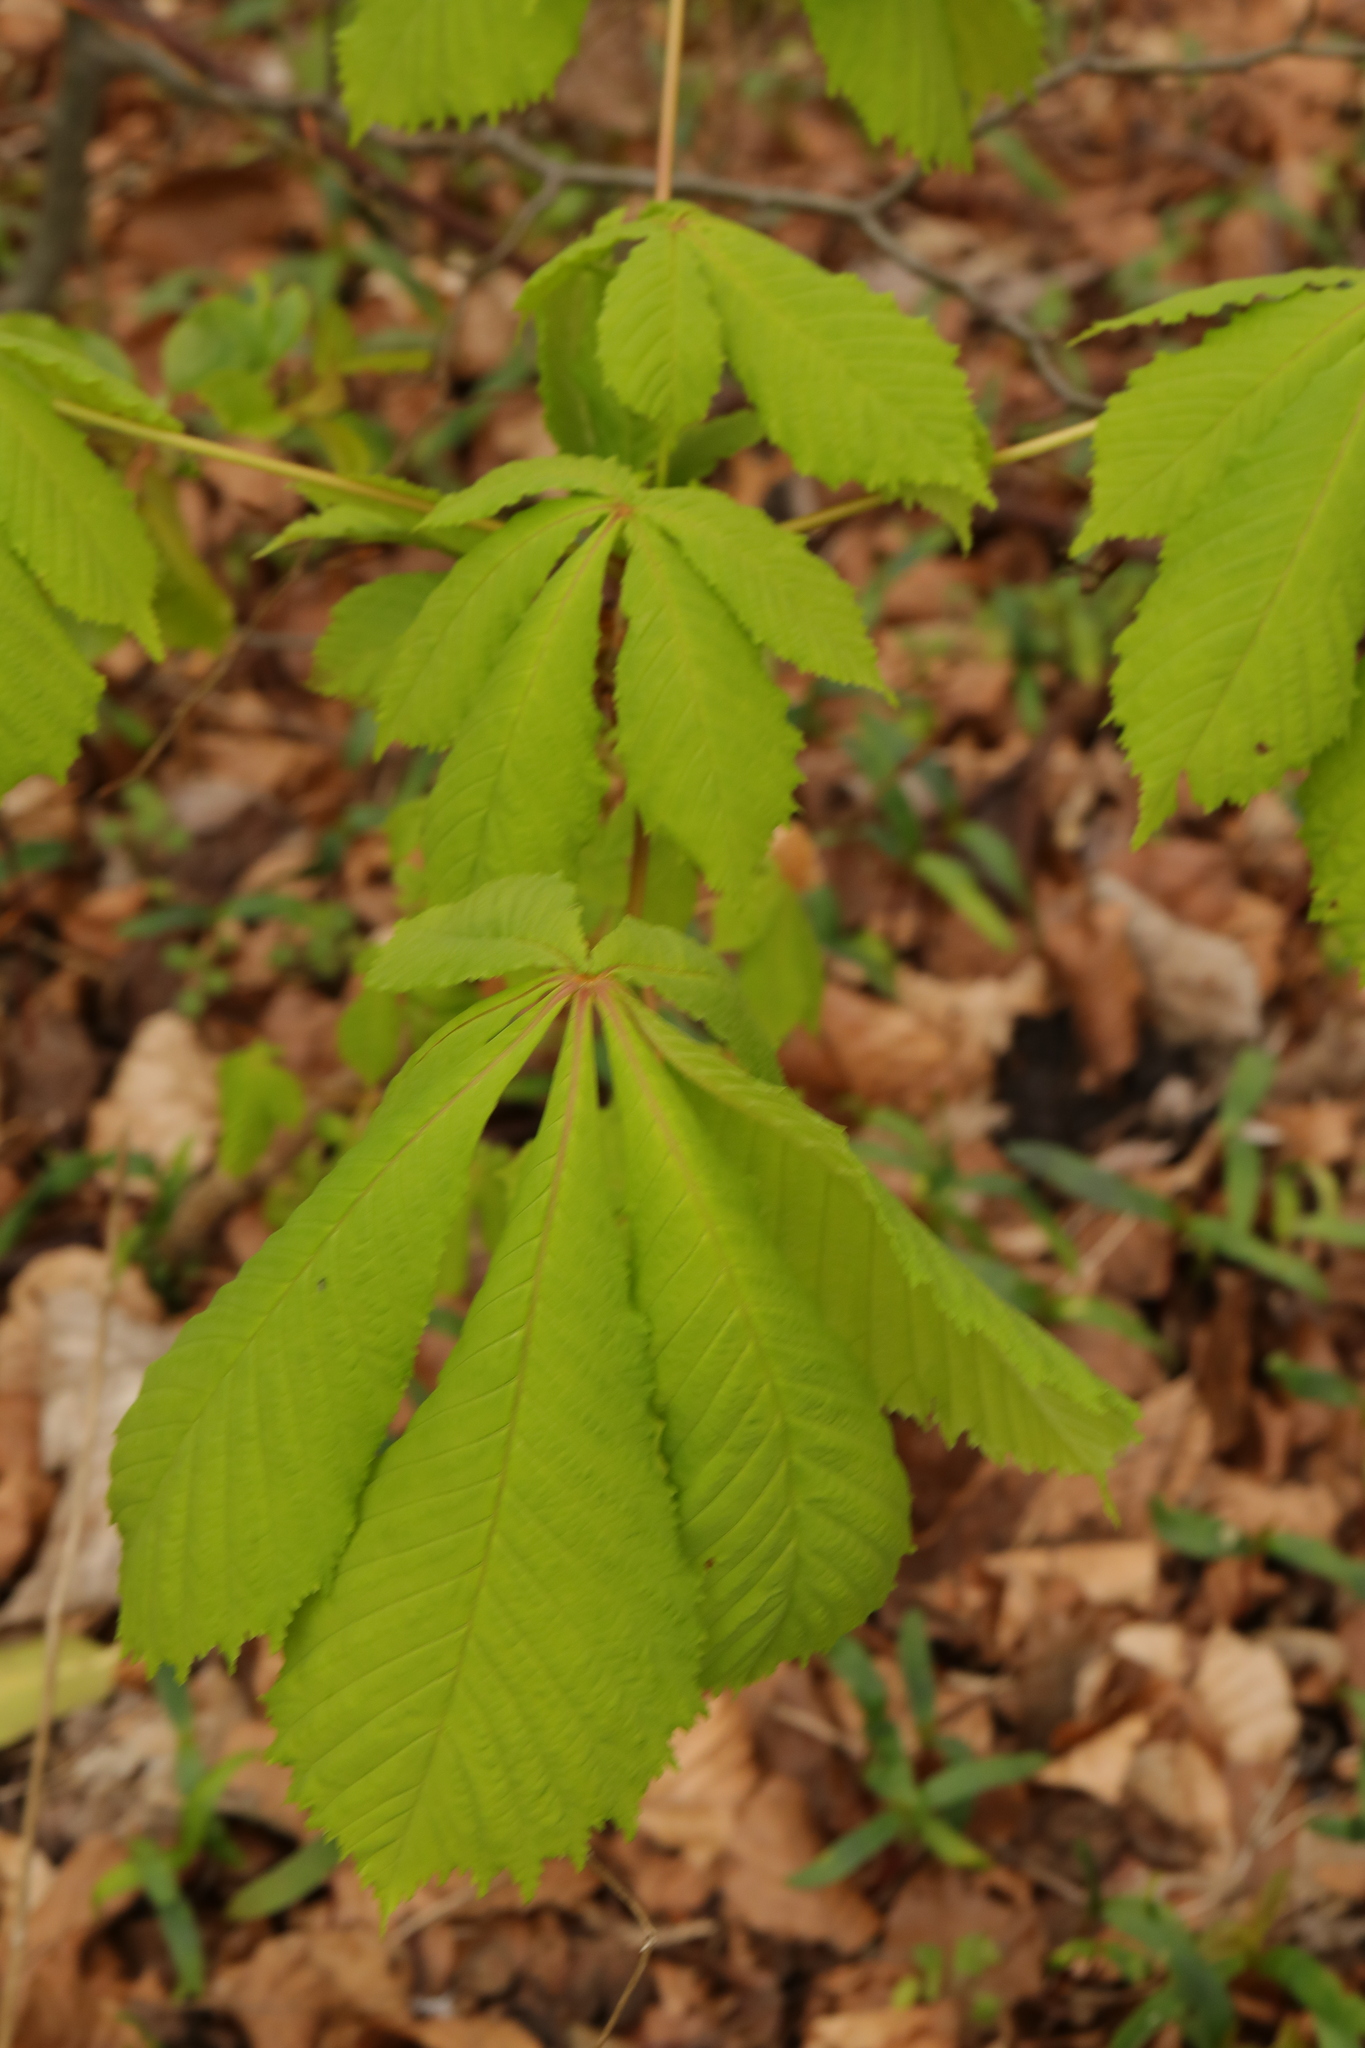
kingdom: Plantae
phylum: Tracheophyta
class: Magnoliopsida
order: Sapindales
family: Sapindaceae
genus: Aesculus
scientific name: Aesculus hippocastanum
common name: Horse-chestnut
